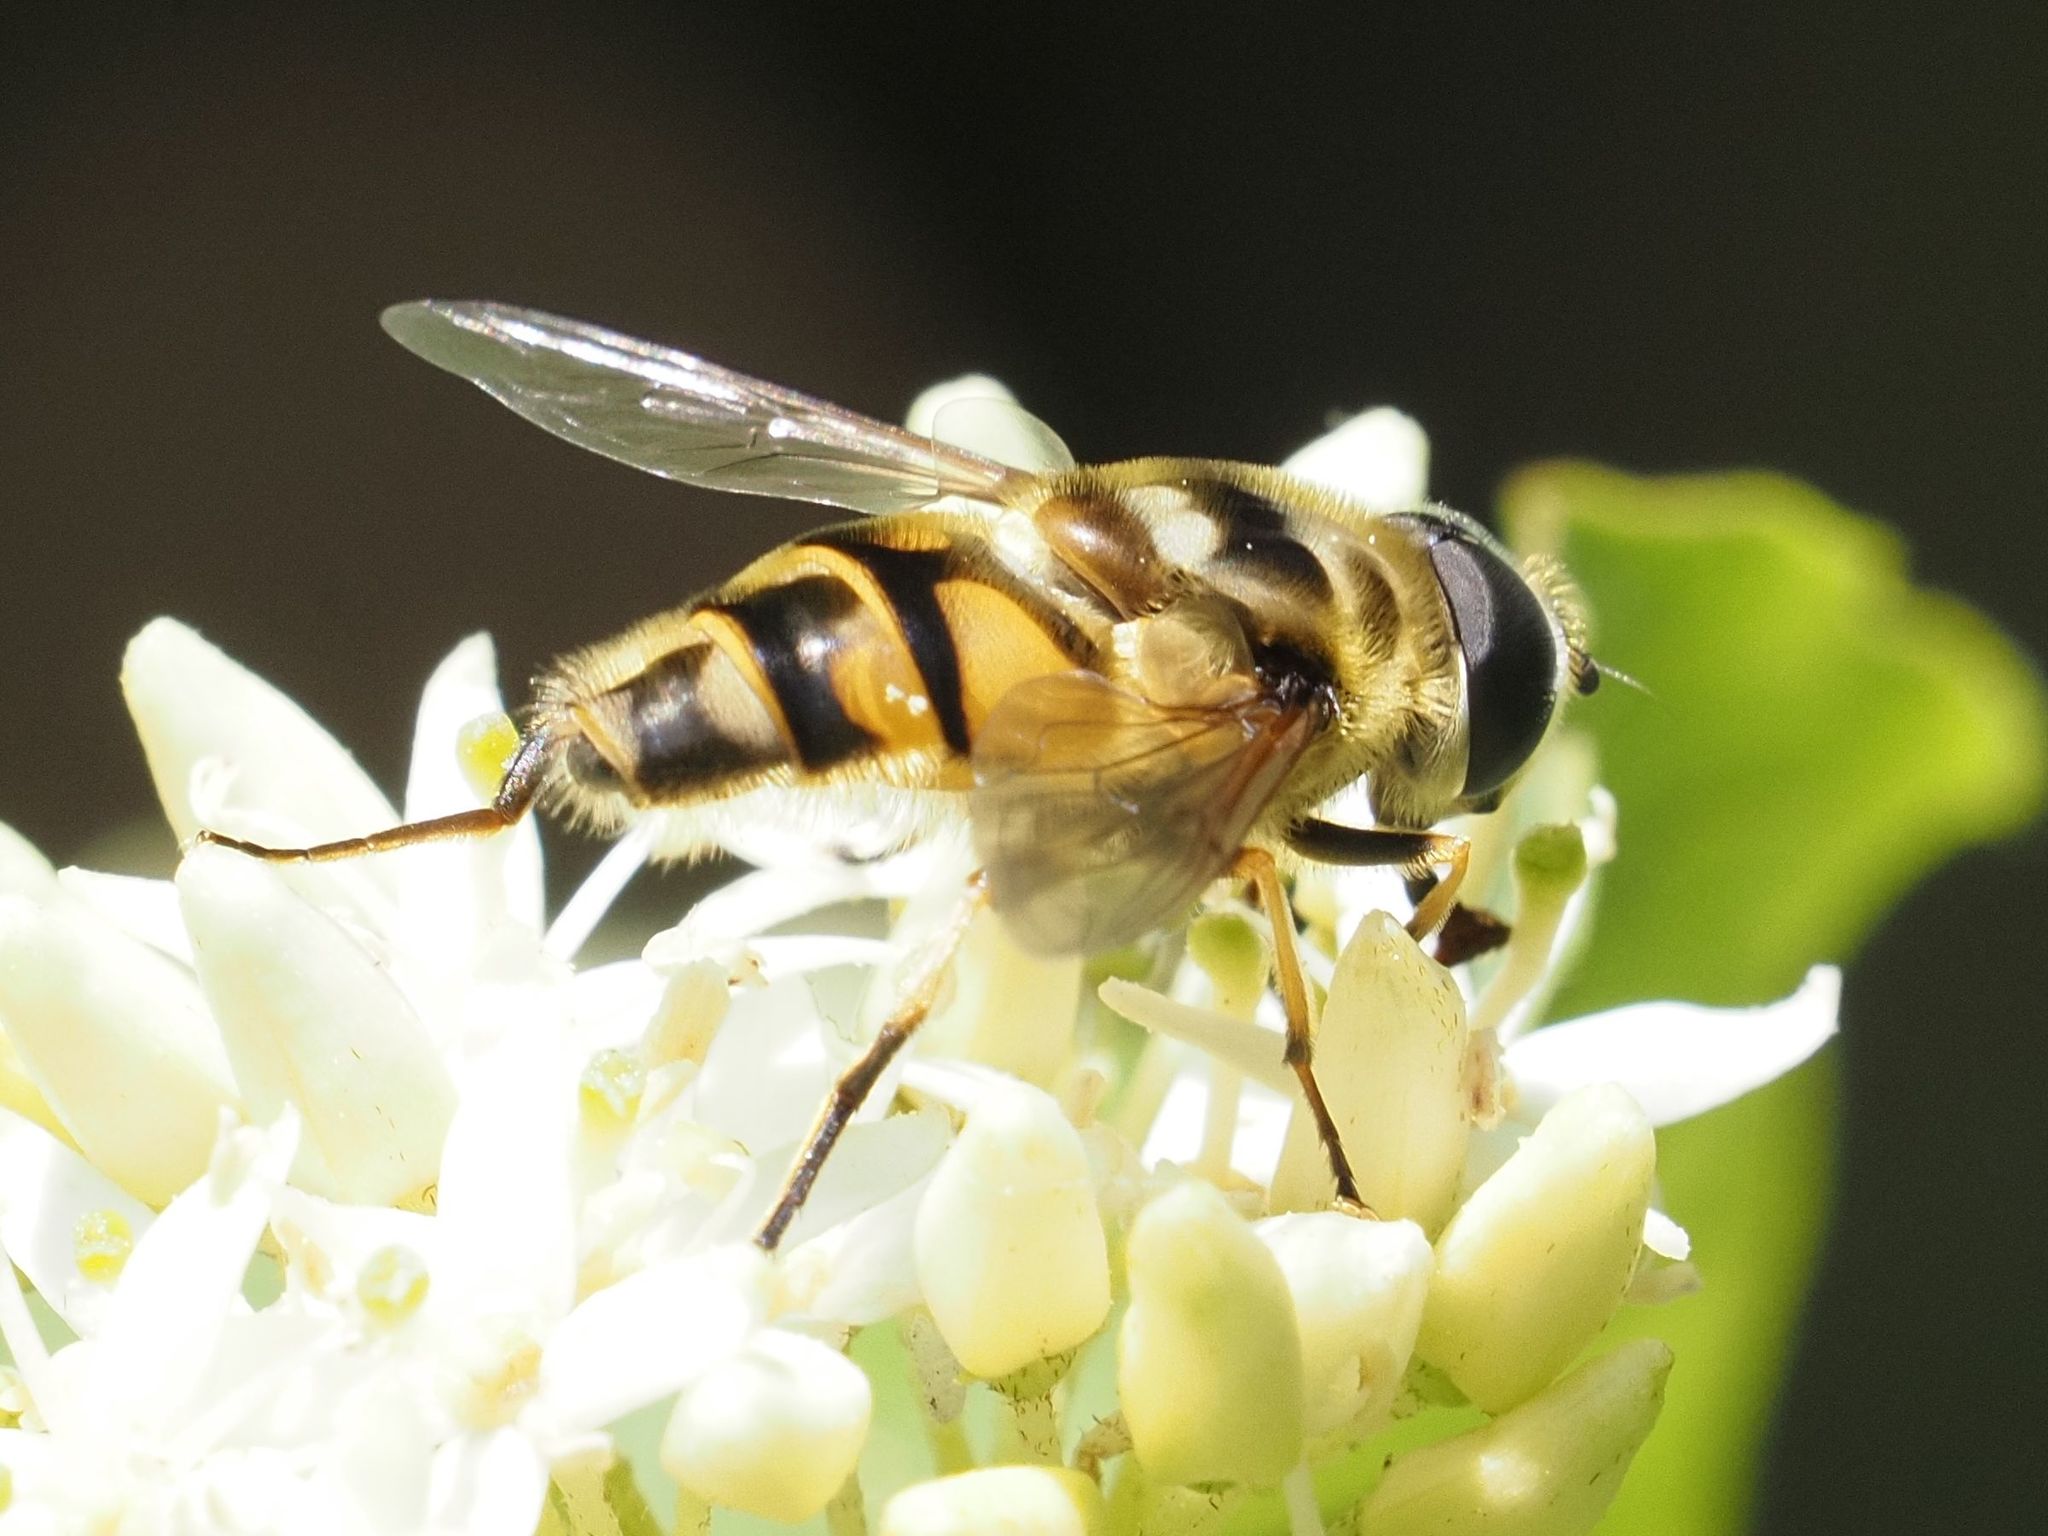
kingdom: Animalia
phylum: Arthropoda
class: Insecta
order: Diptera
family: Syrphidae
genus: Myathropa
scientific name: Myathropa florea
